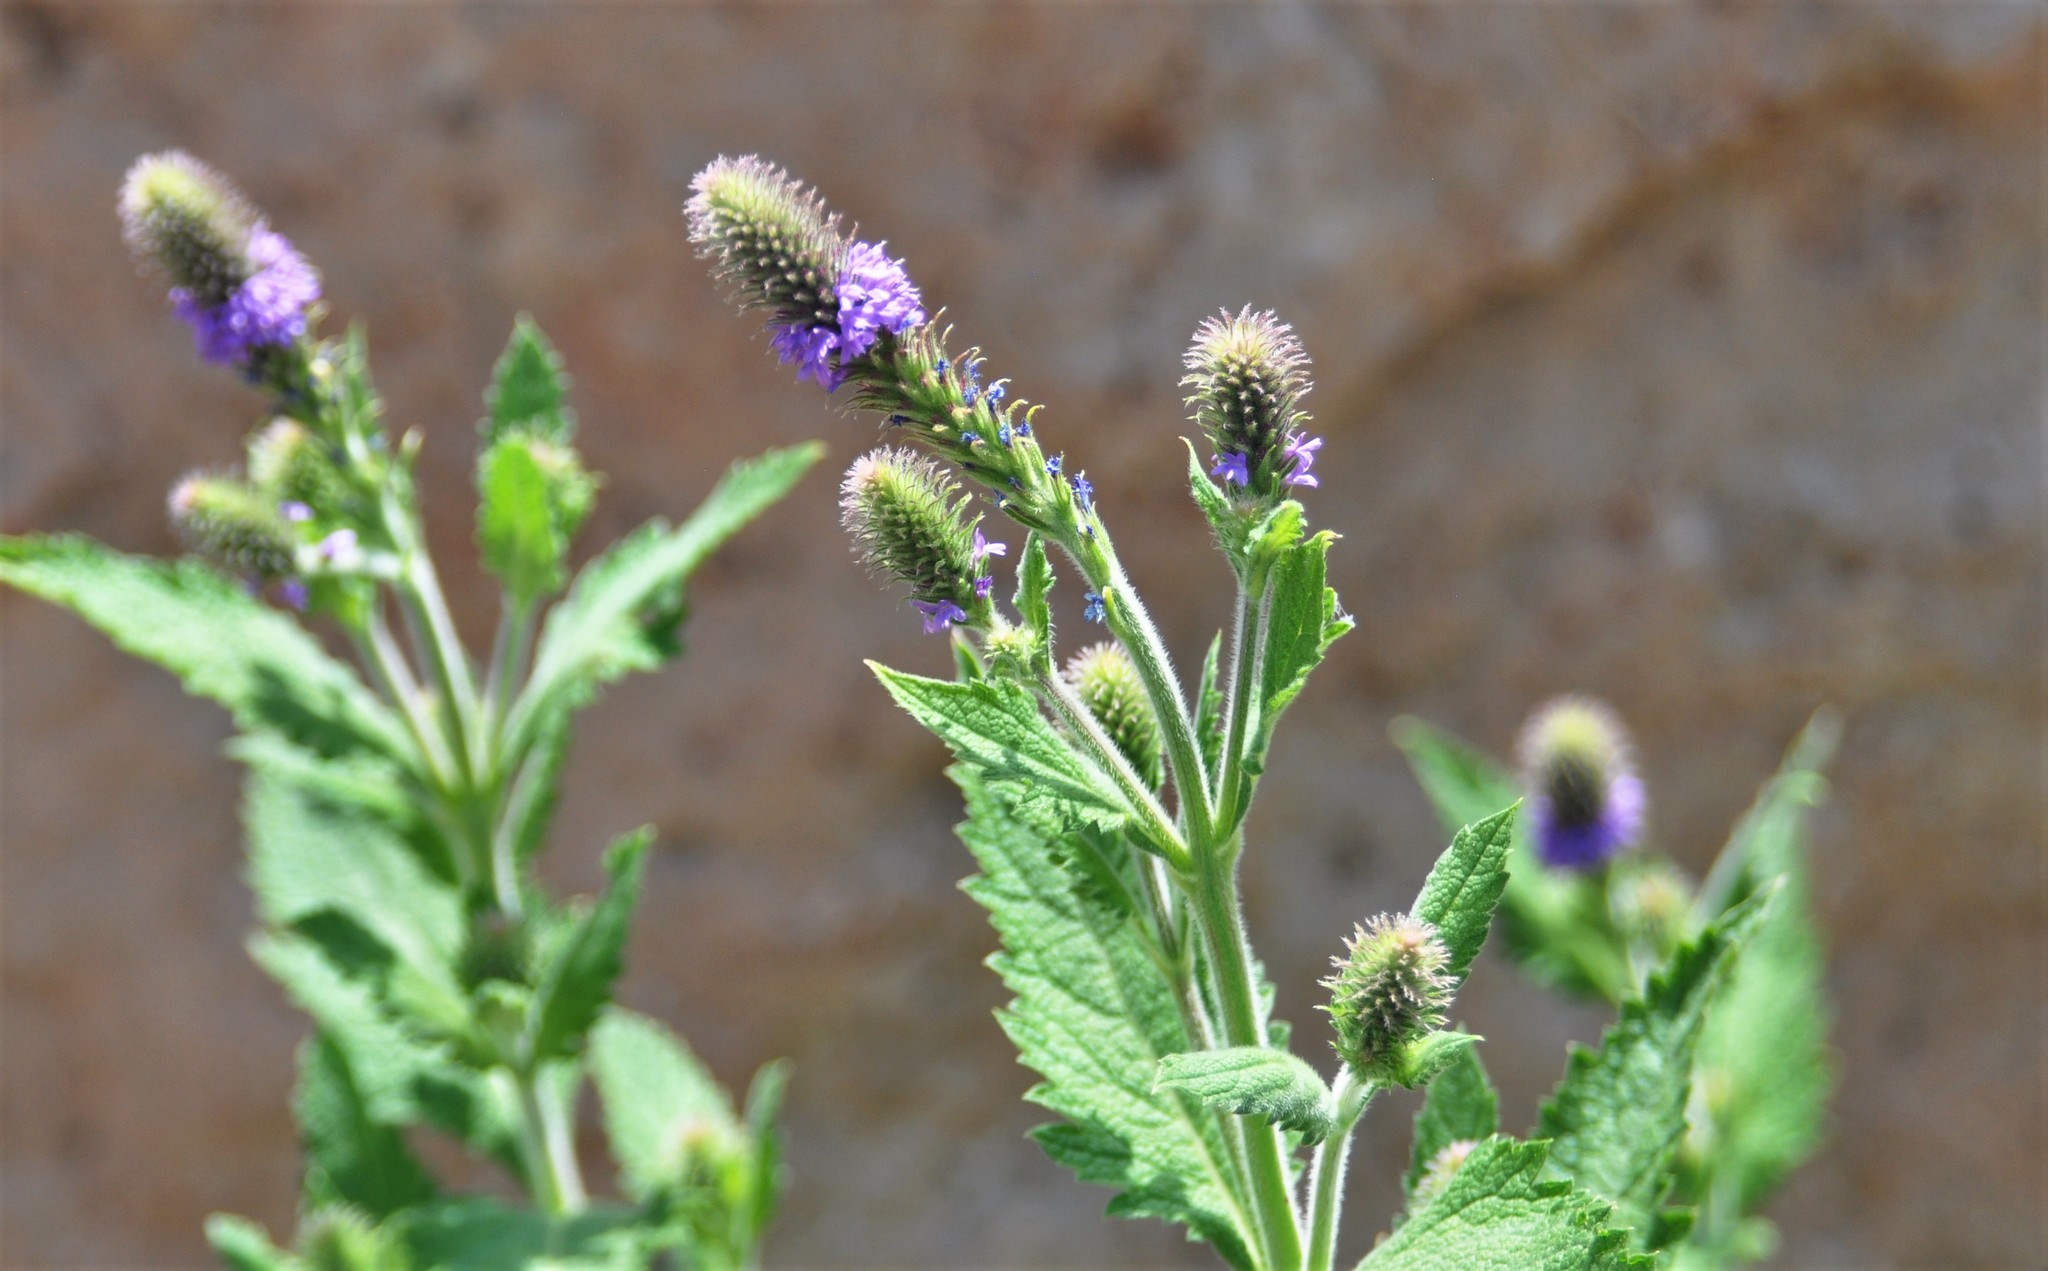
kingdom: Plantae
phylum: Tracheophyta
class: Magnoliopsida
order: Lamiales
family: Verbenaceae
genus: Verbena
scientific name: Verbena macdougalii
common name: New mexico vervain
